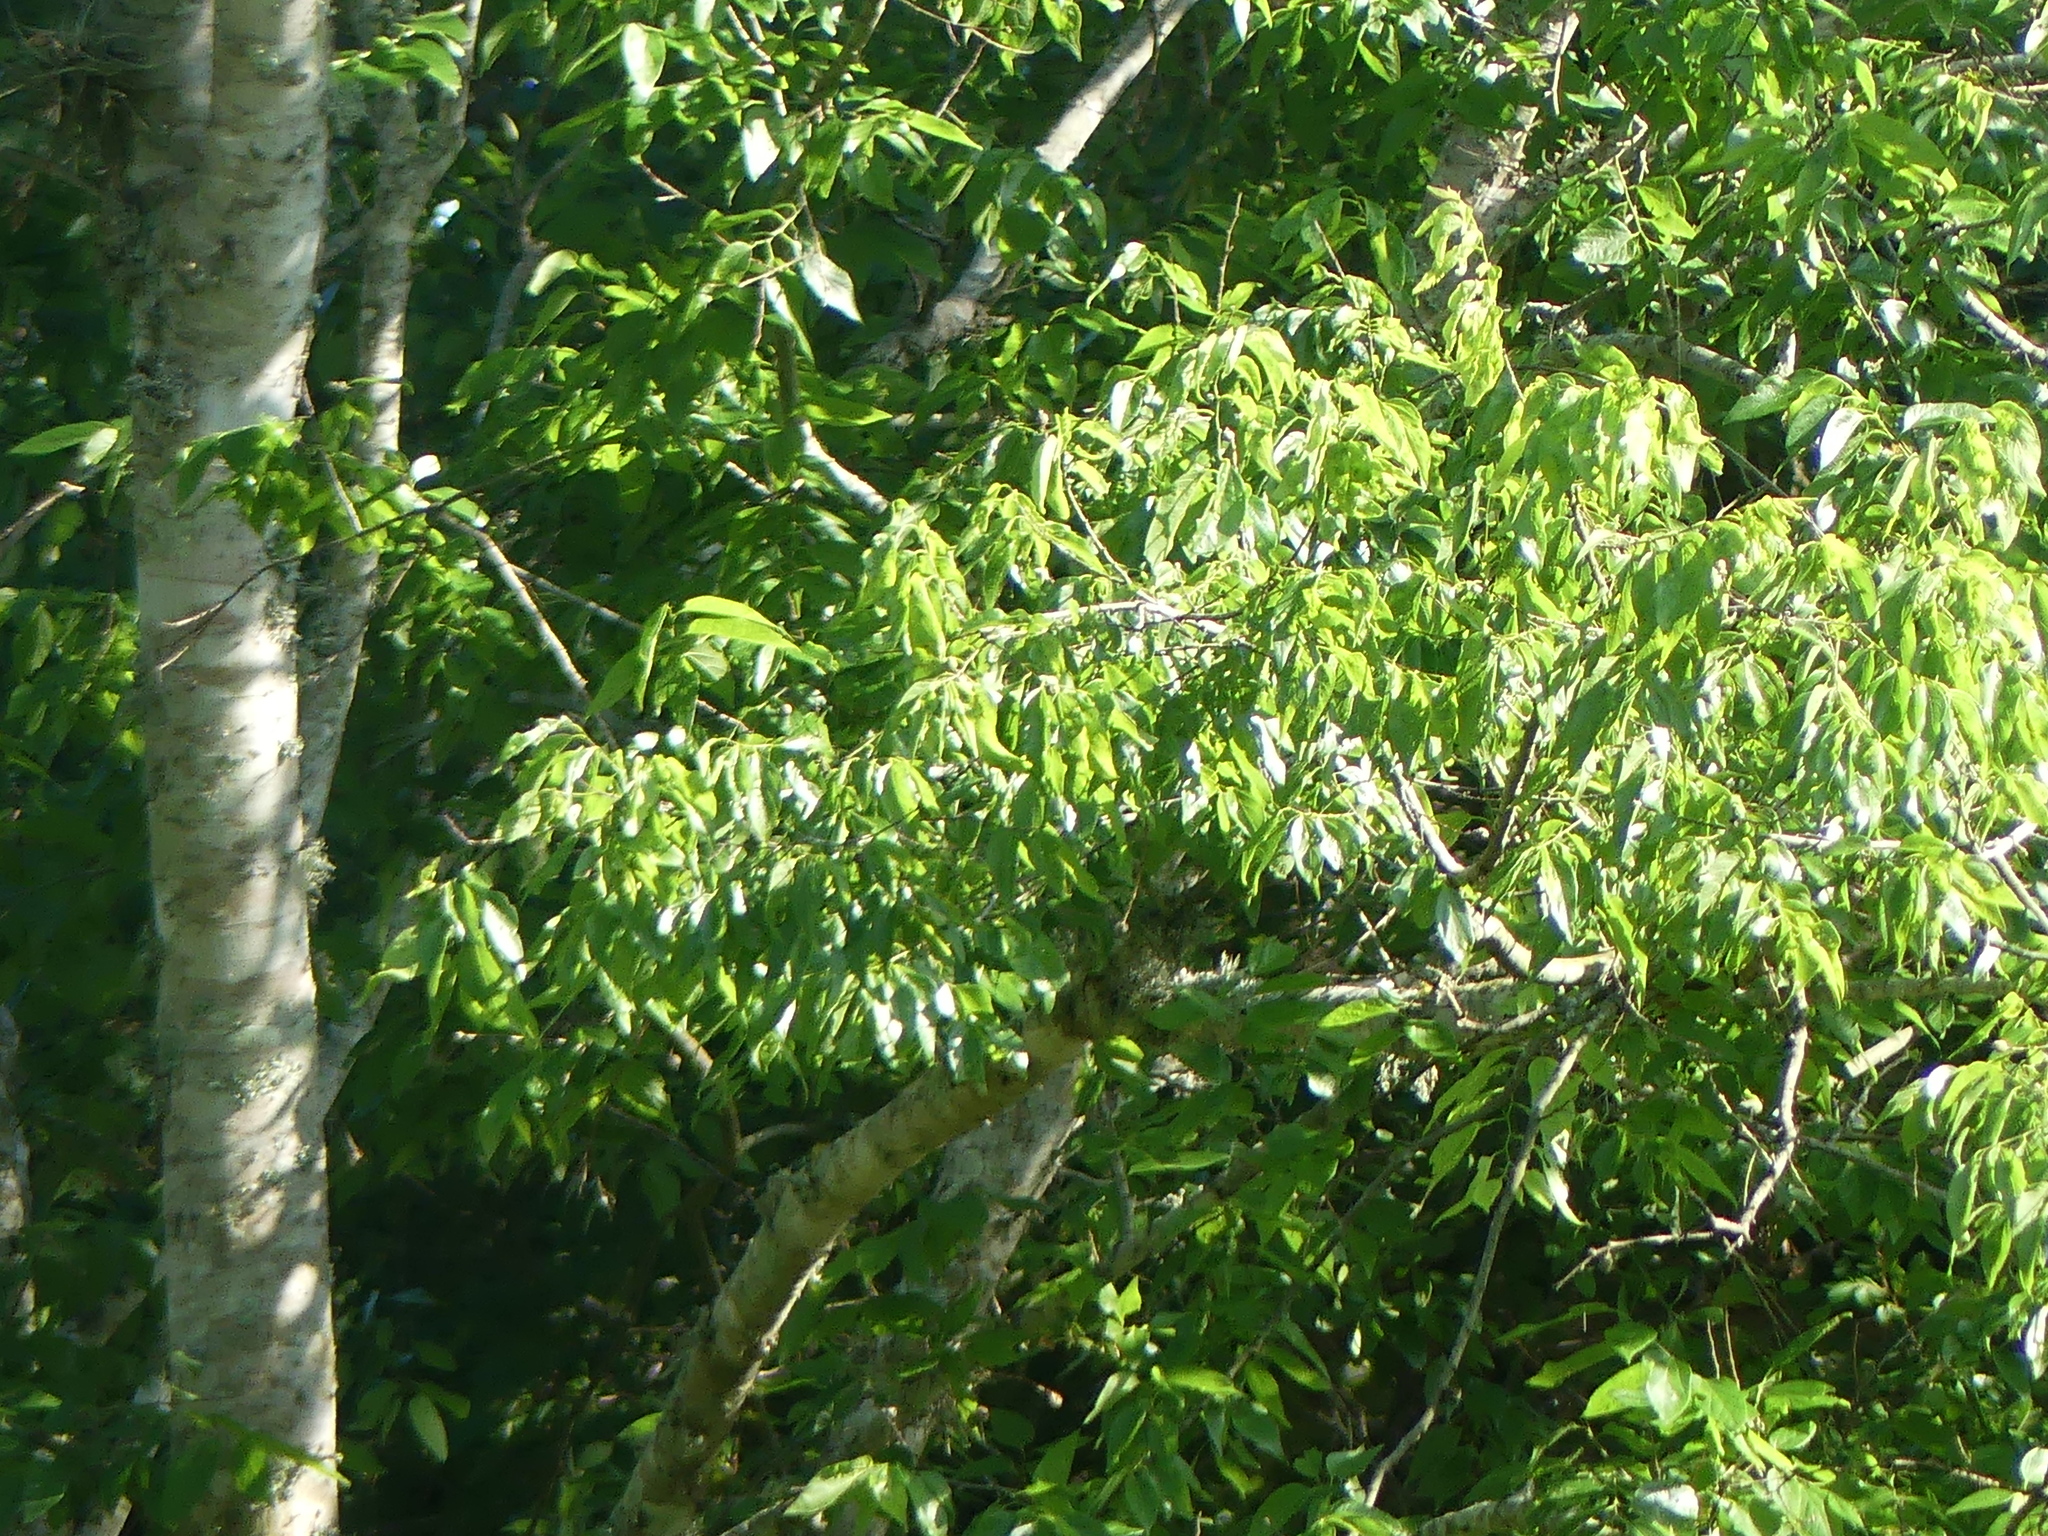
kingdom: Plantae
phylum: Tracheophyta
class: Magnoliopsida
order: Rosales
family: Cannabaceae
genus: Celtis
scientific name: Celtis laevigata
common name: Sugarberry
